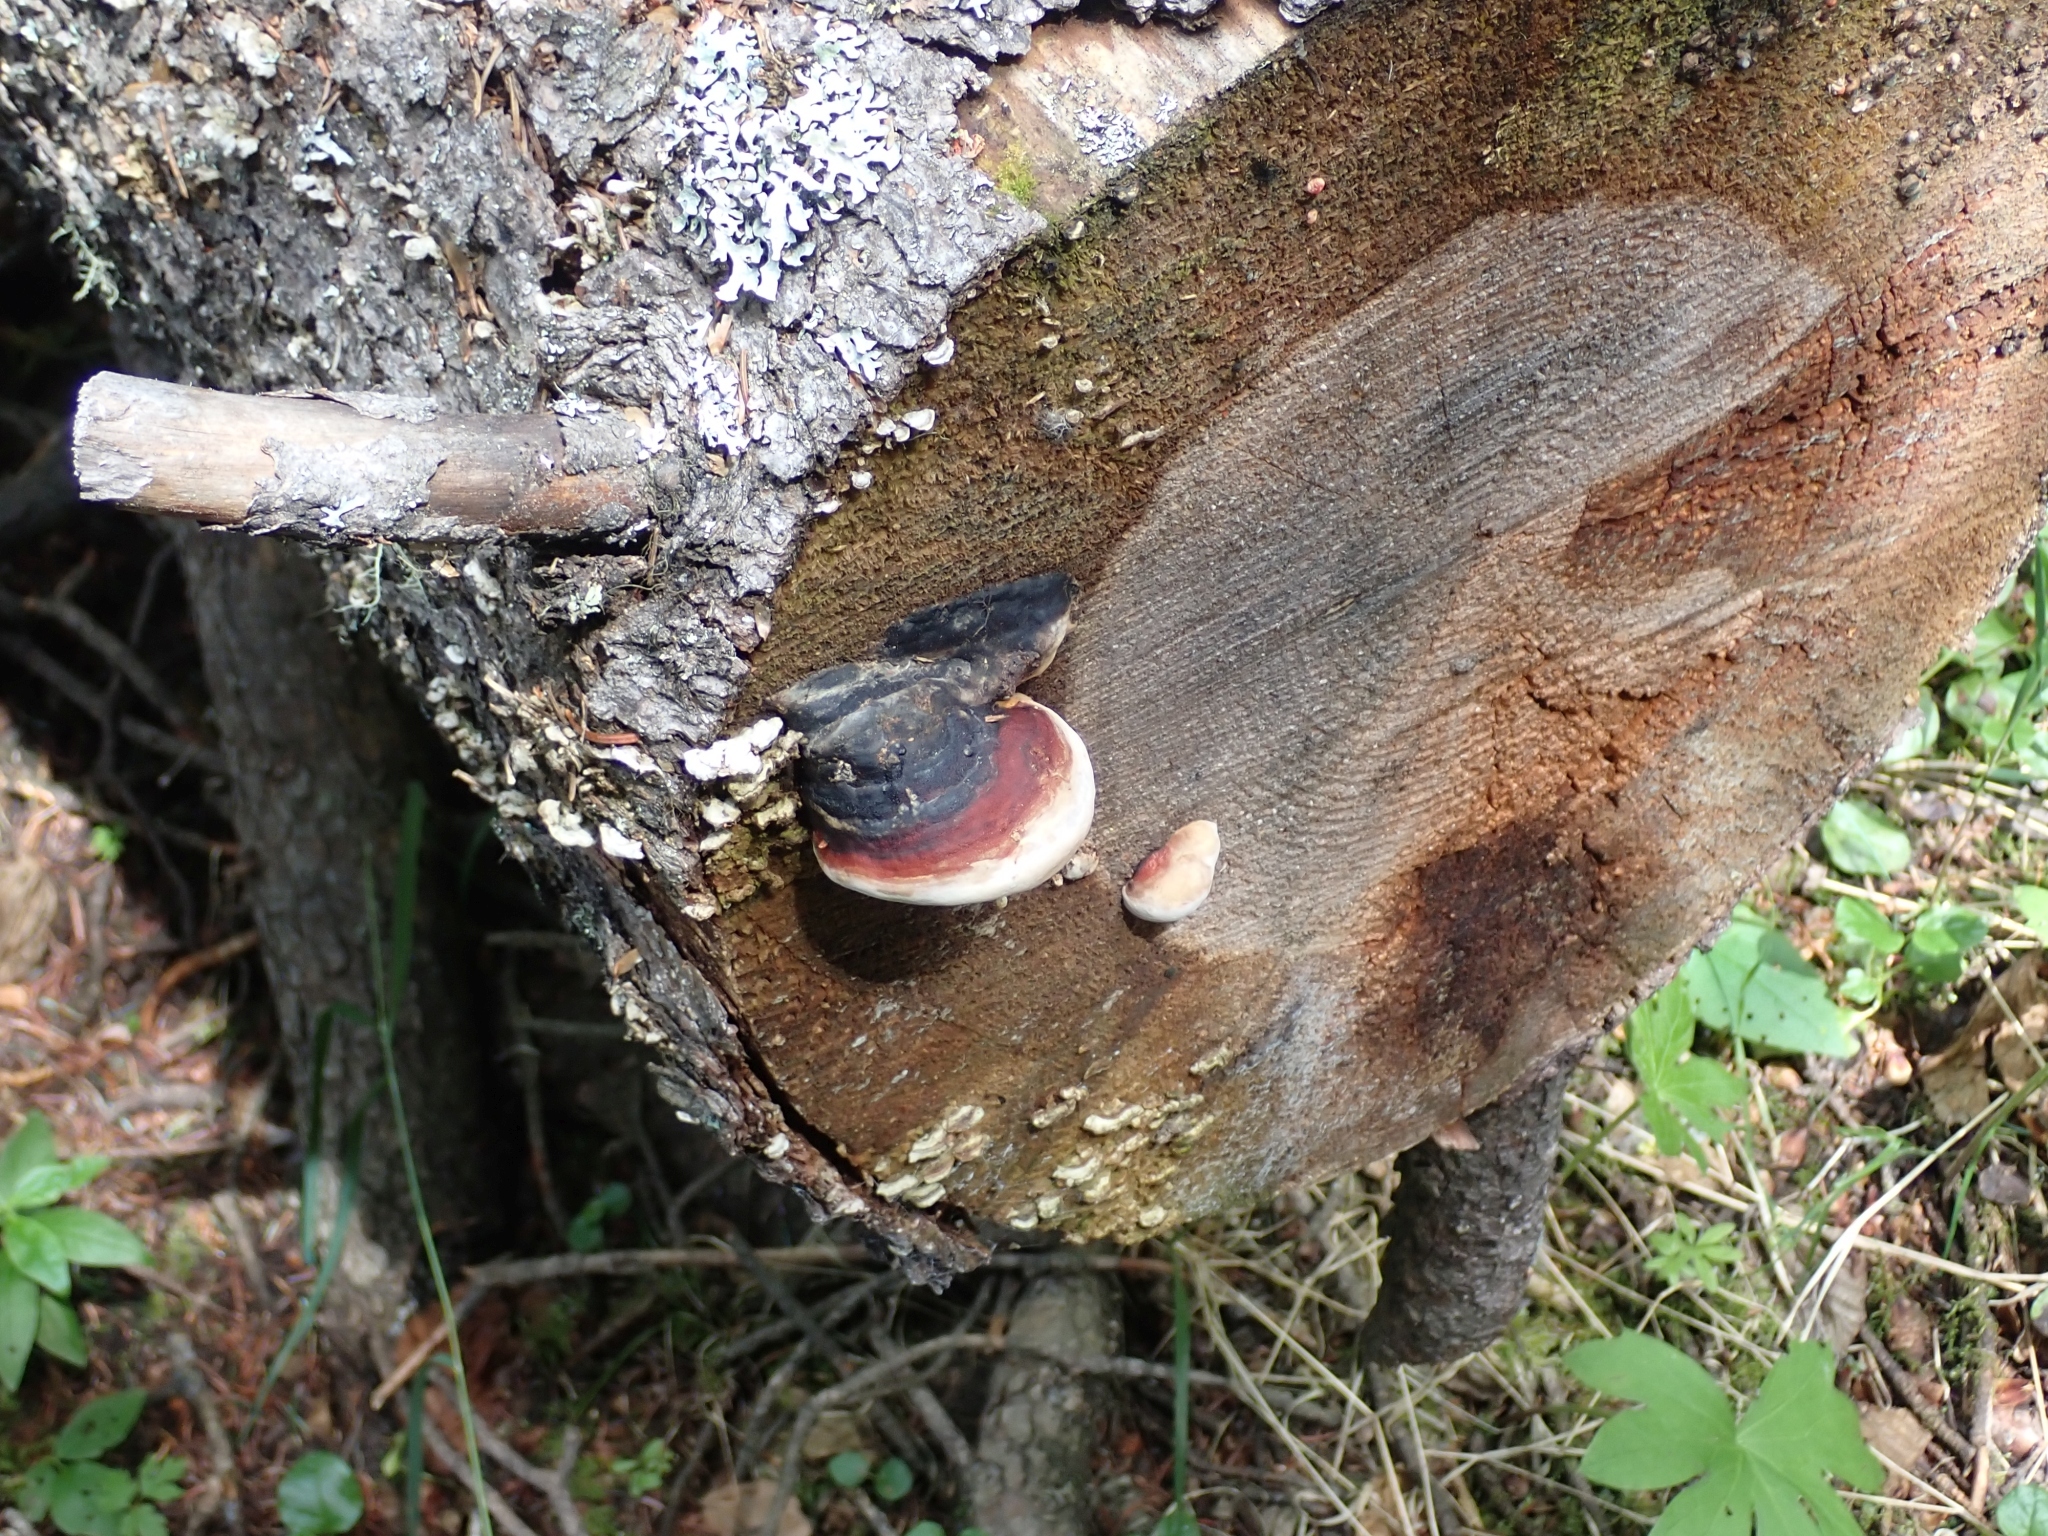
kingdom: Fungi
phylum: Basidiomycota
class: Agaricomycetes
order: Polyporales
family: Fomitopsidaceae
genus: Fomitopsis
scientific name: Fomitopsis mounceae
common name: Northern red belt
